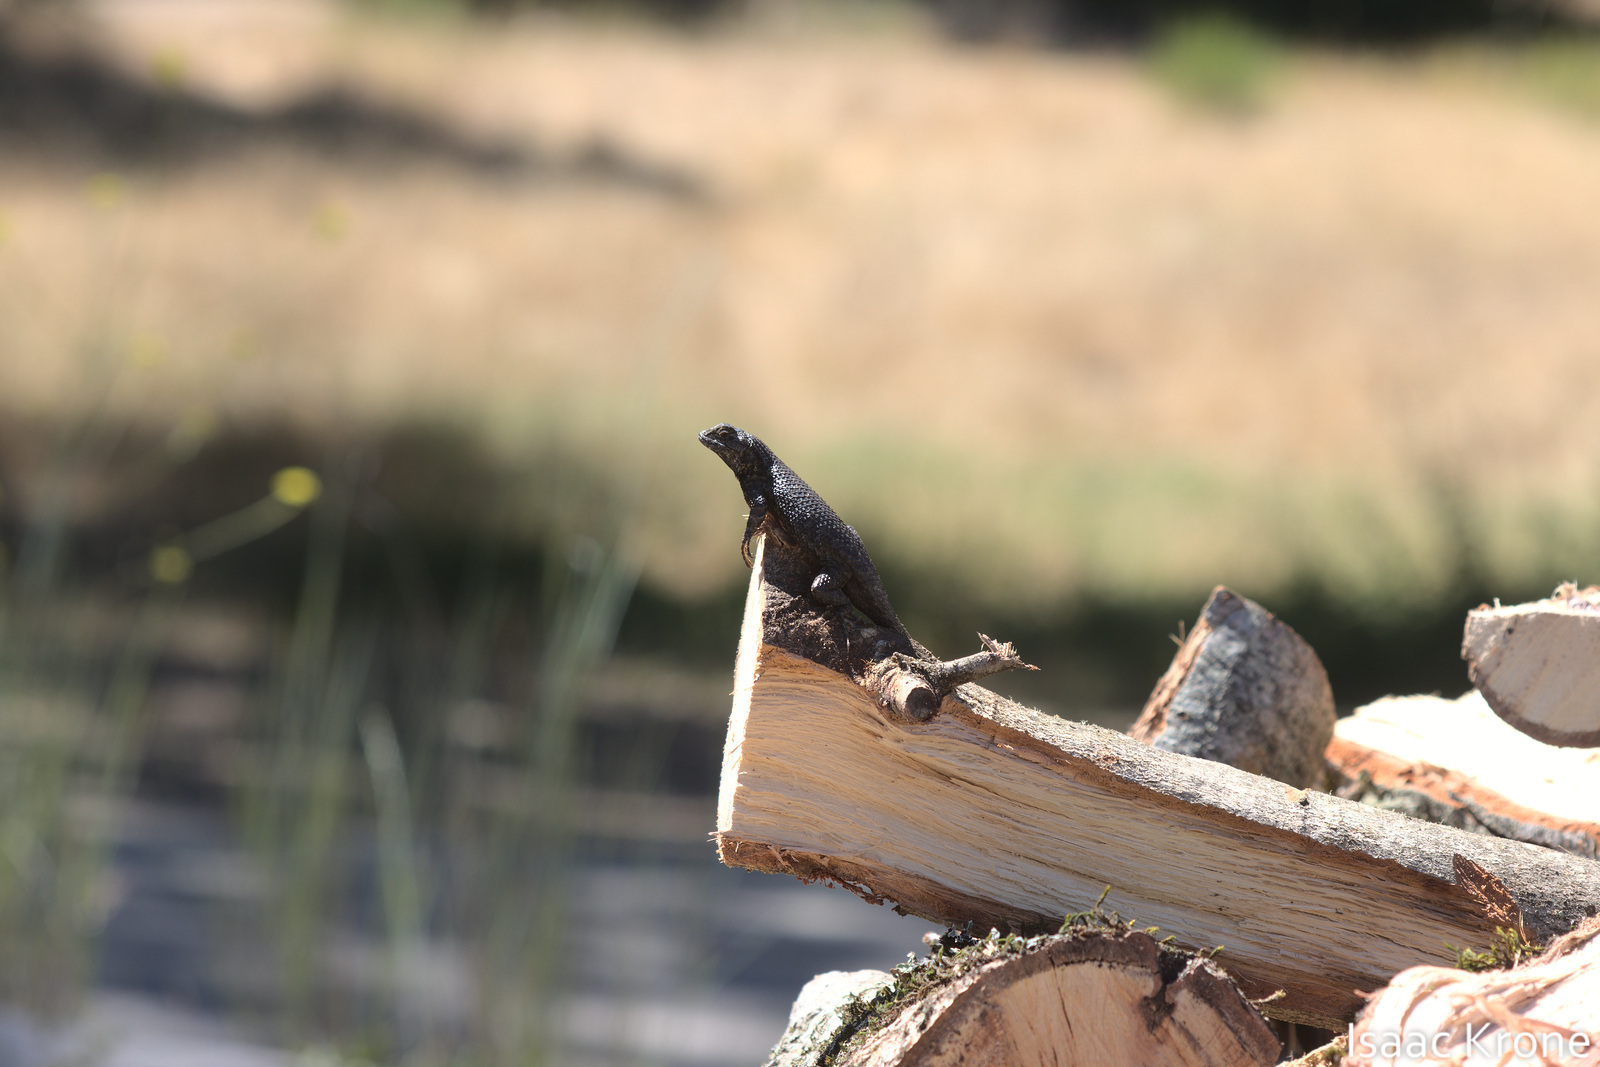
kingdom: Animalia
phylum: Chordata
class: Squamata
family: Phrynosomatidae
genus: Sceloporus
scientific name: Sceloporus occidentalis
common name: Western fence lizard
